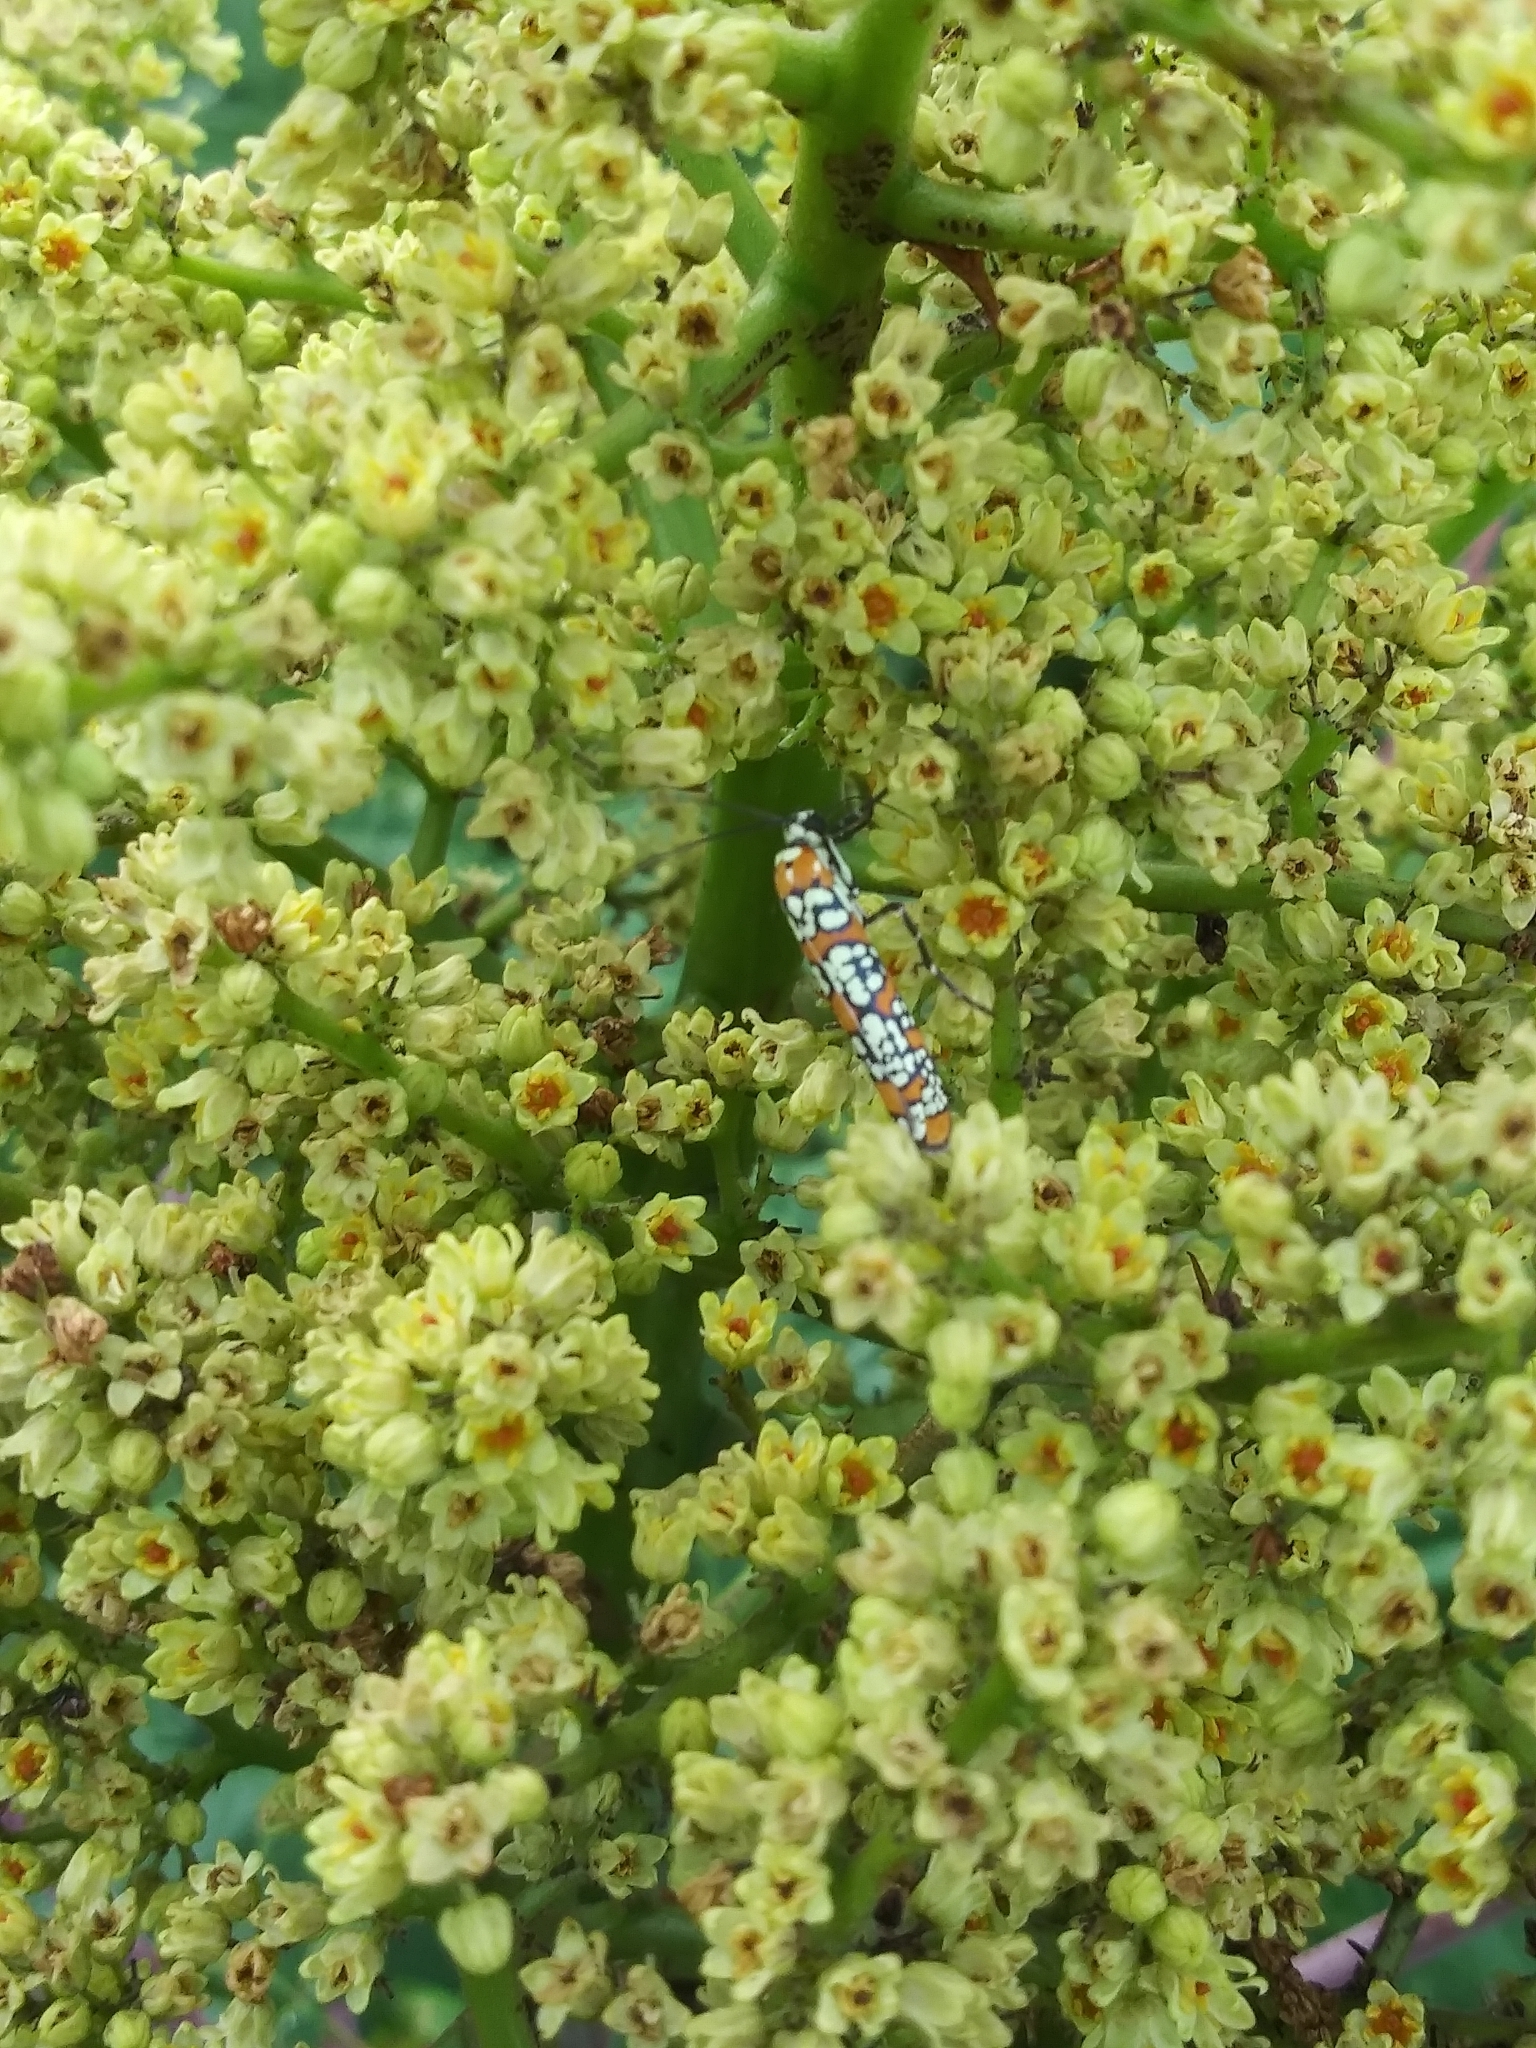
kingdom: Animalia
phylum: Arthropoda
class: Insecta
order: Lepidoptera
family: Attevidae
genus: Atteva
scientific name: Atteva punctella
